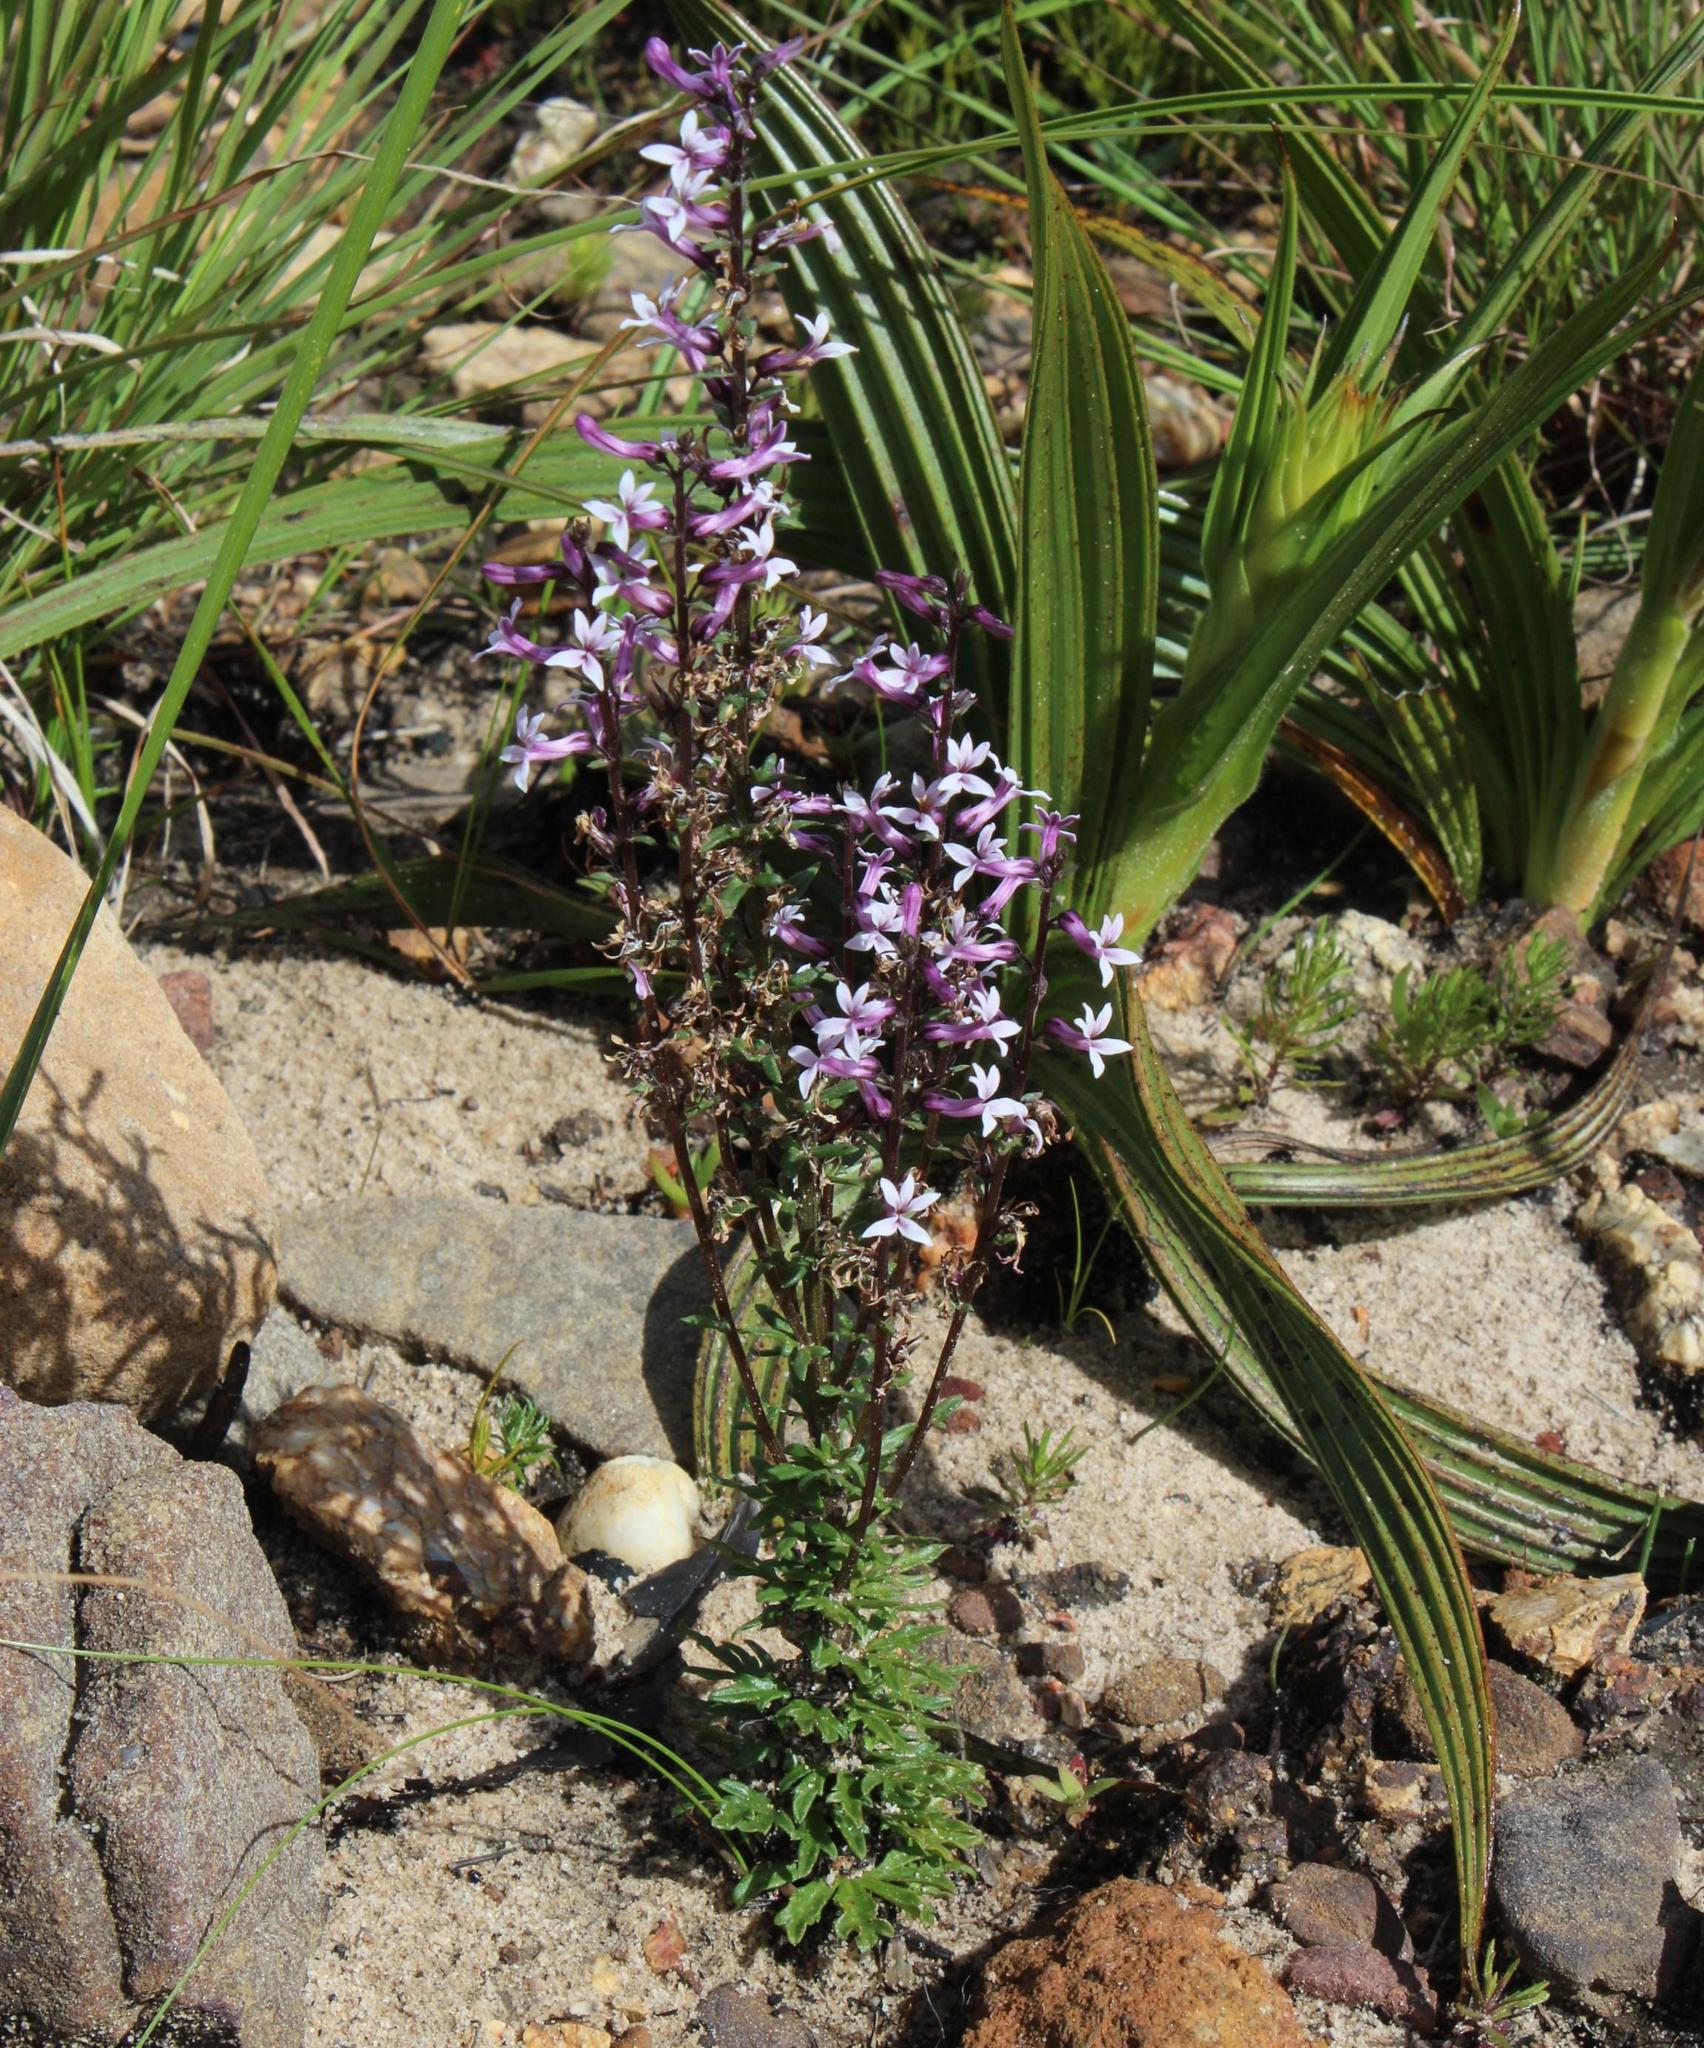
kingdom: Plantae
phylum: Tracheophyta
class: Magnoliopsida
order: Asterales
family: Campanulaceae
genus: Cyphia
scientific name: Cyphia bulbosa
